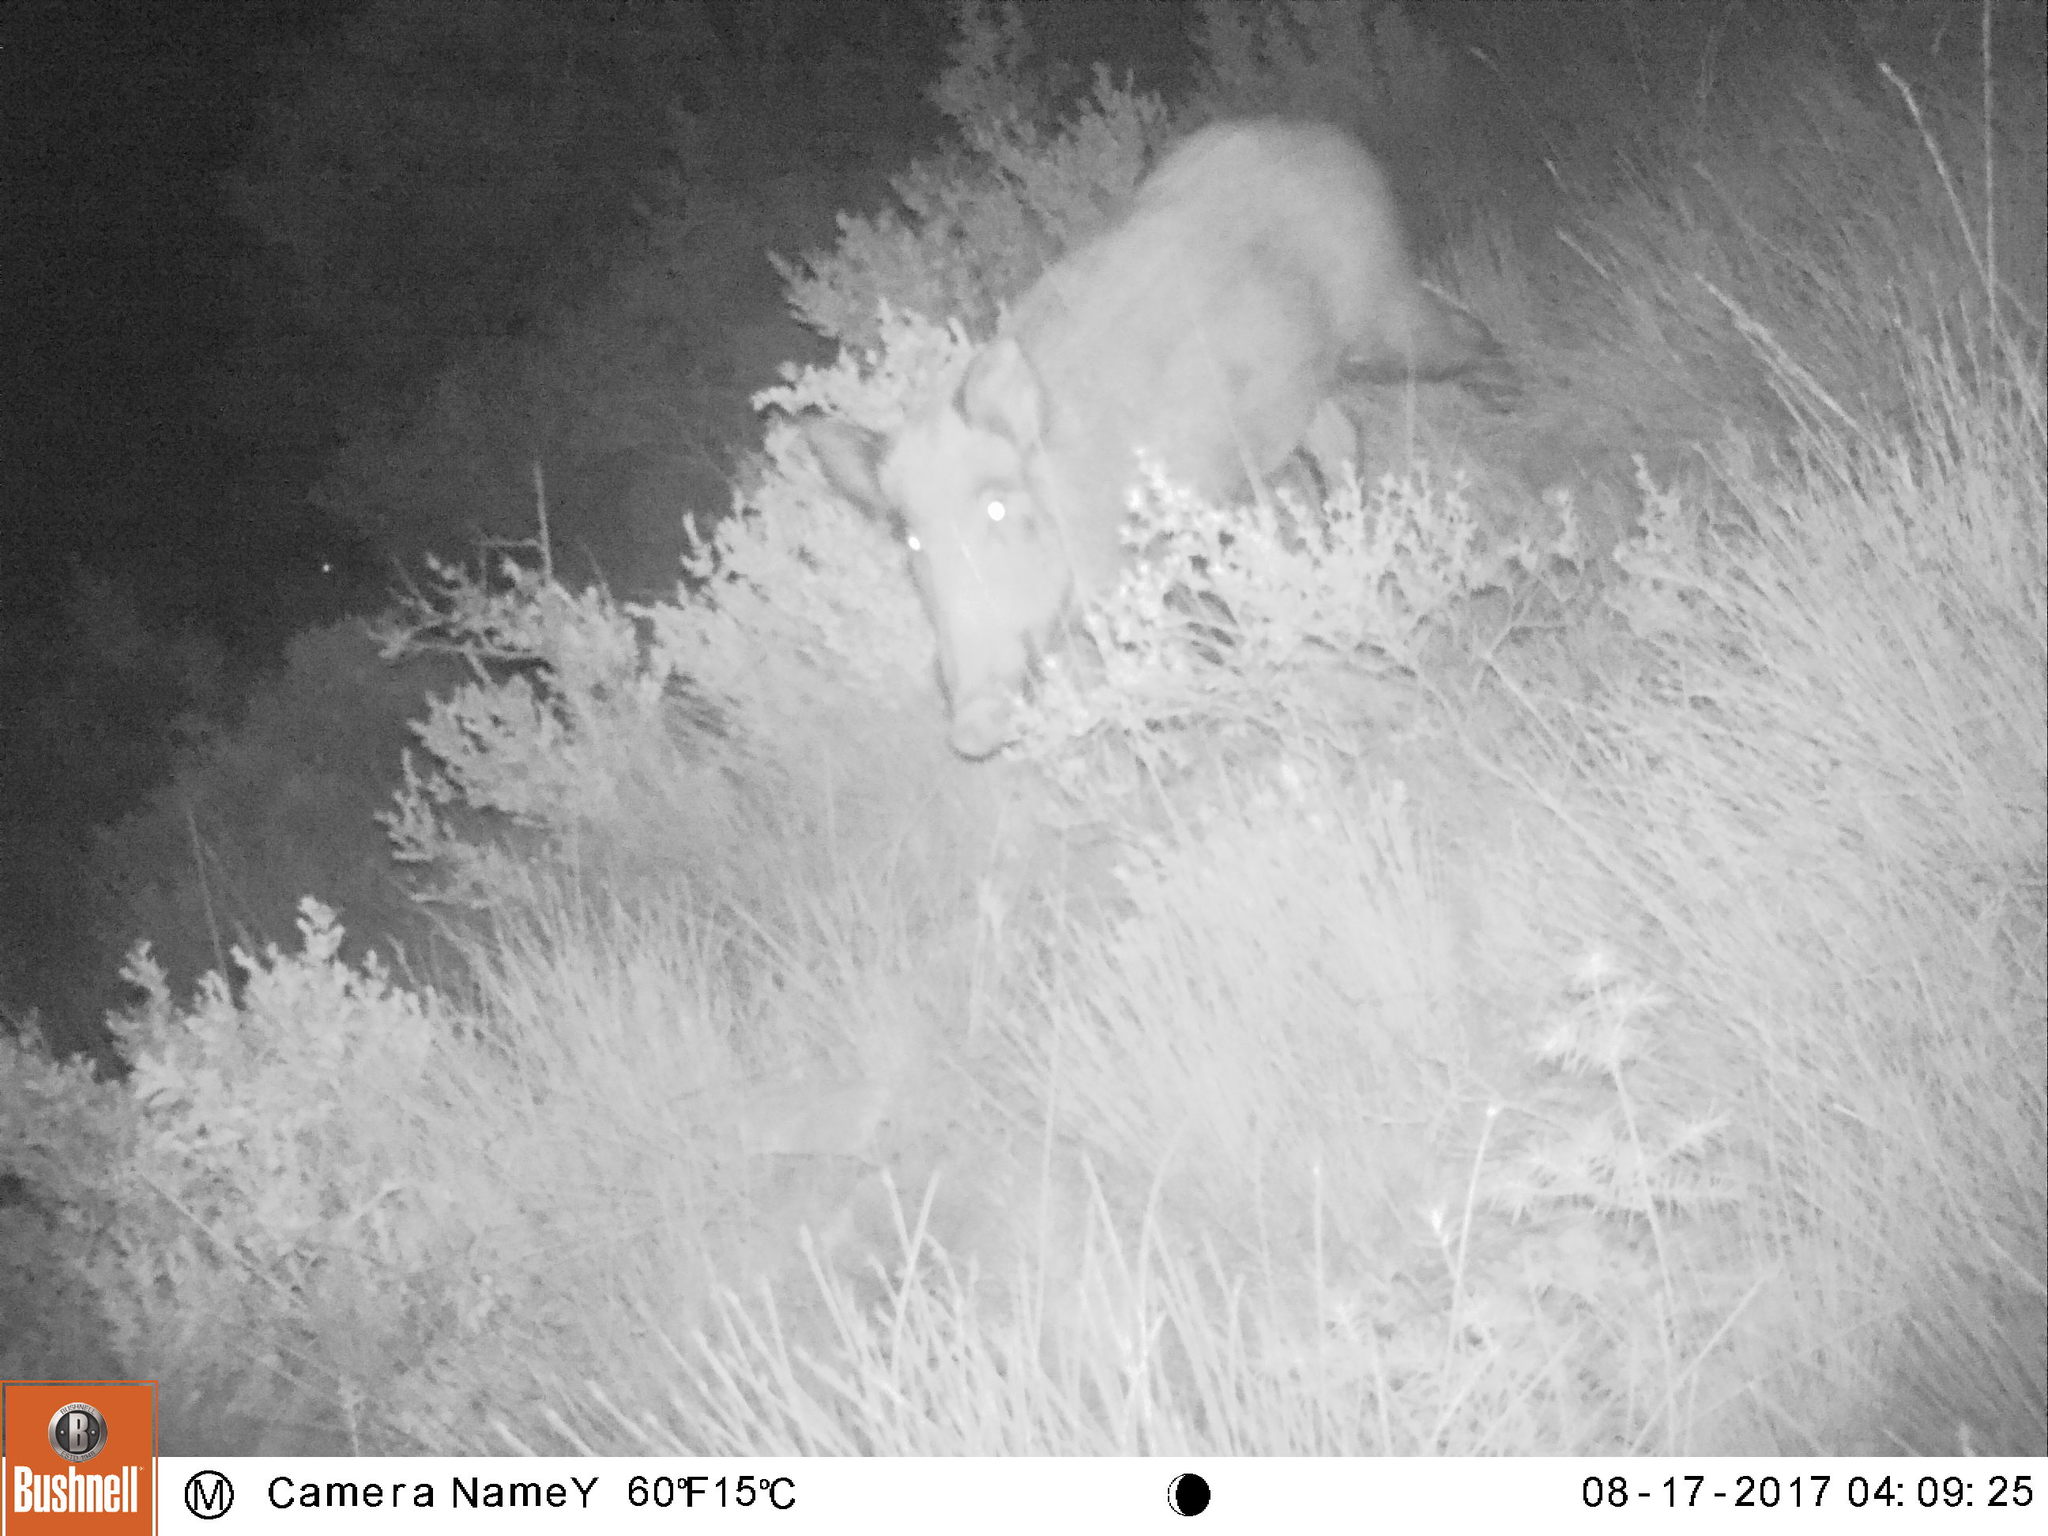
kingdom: Animalia
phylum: Chordata
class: Mammalia
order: Artiodactyla
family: Suidae
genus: Sus
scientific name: Sus scrofa
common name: Wild boar
